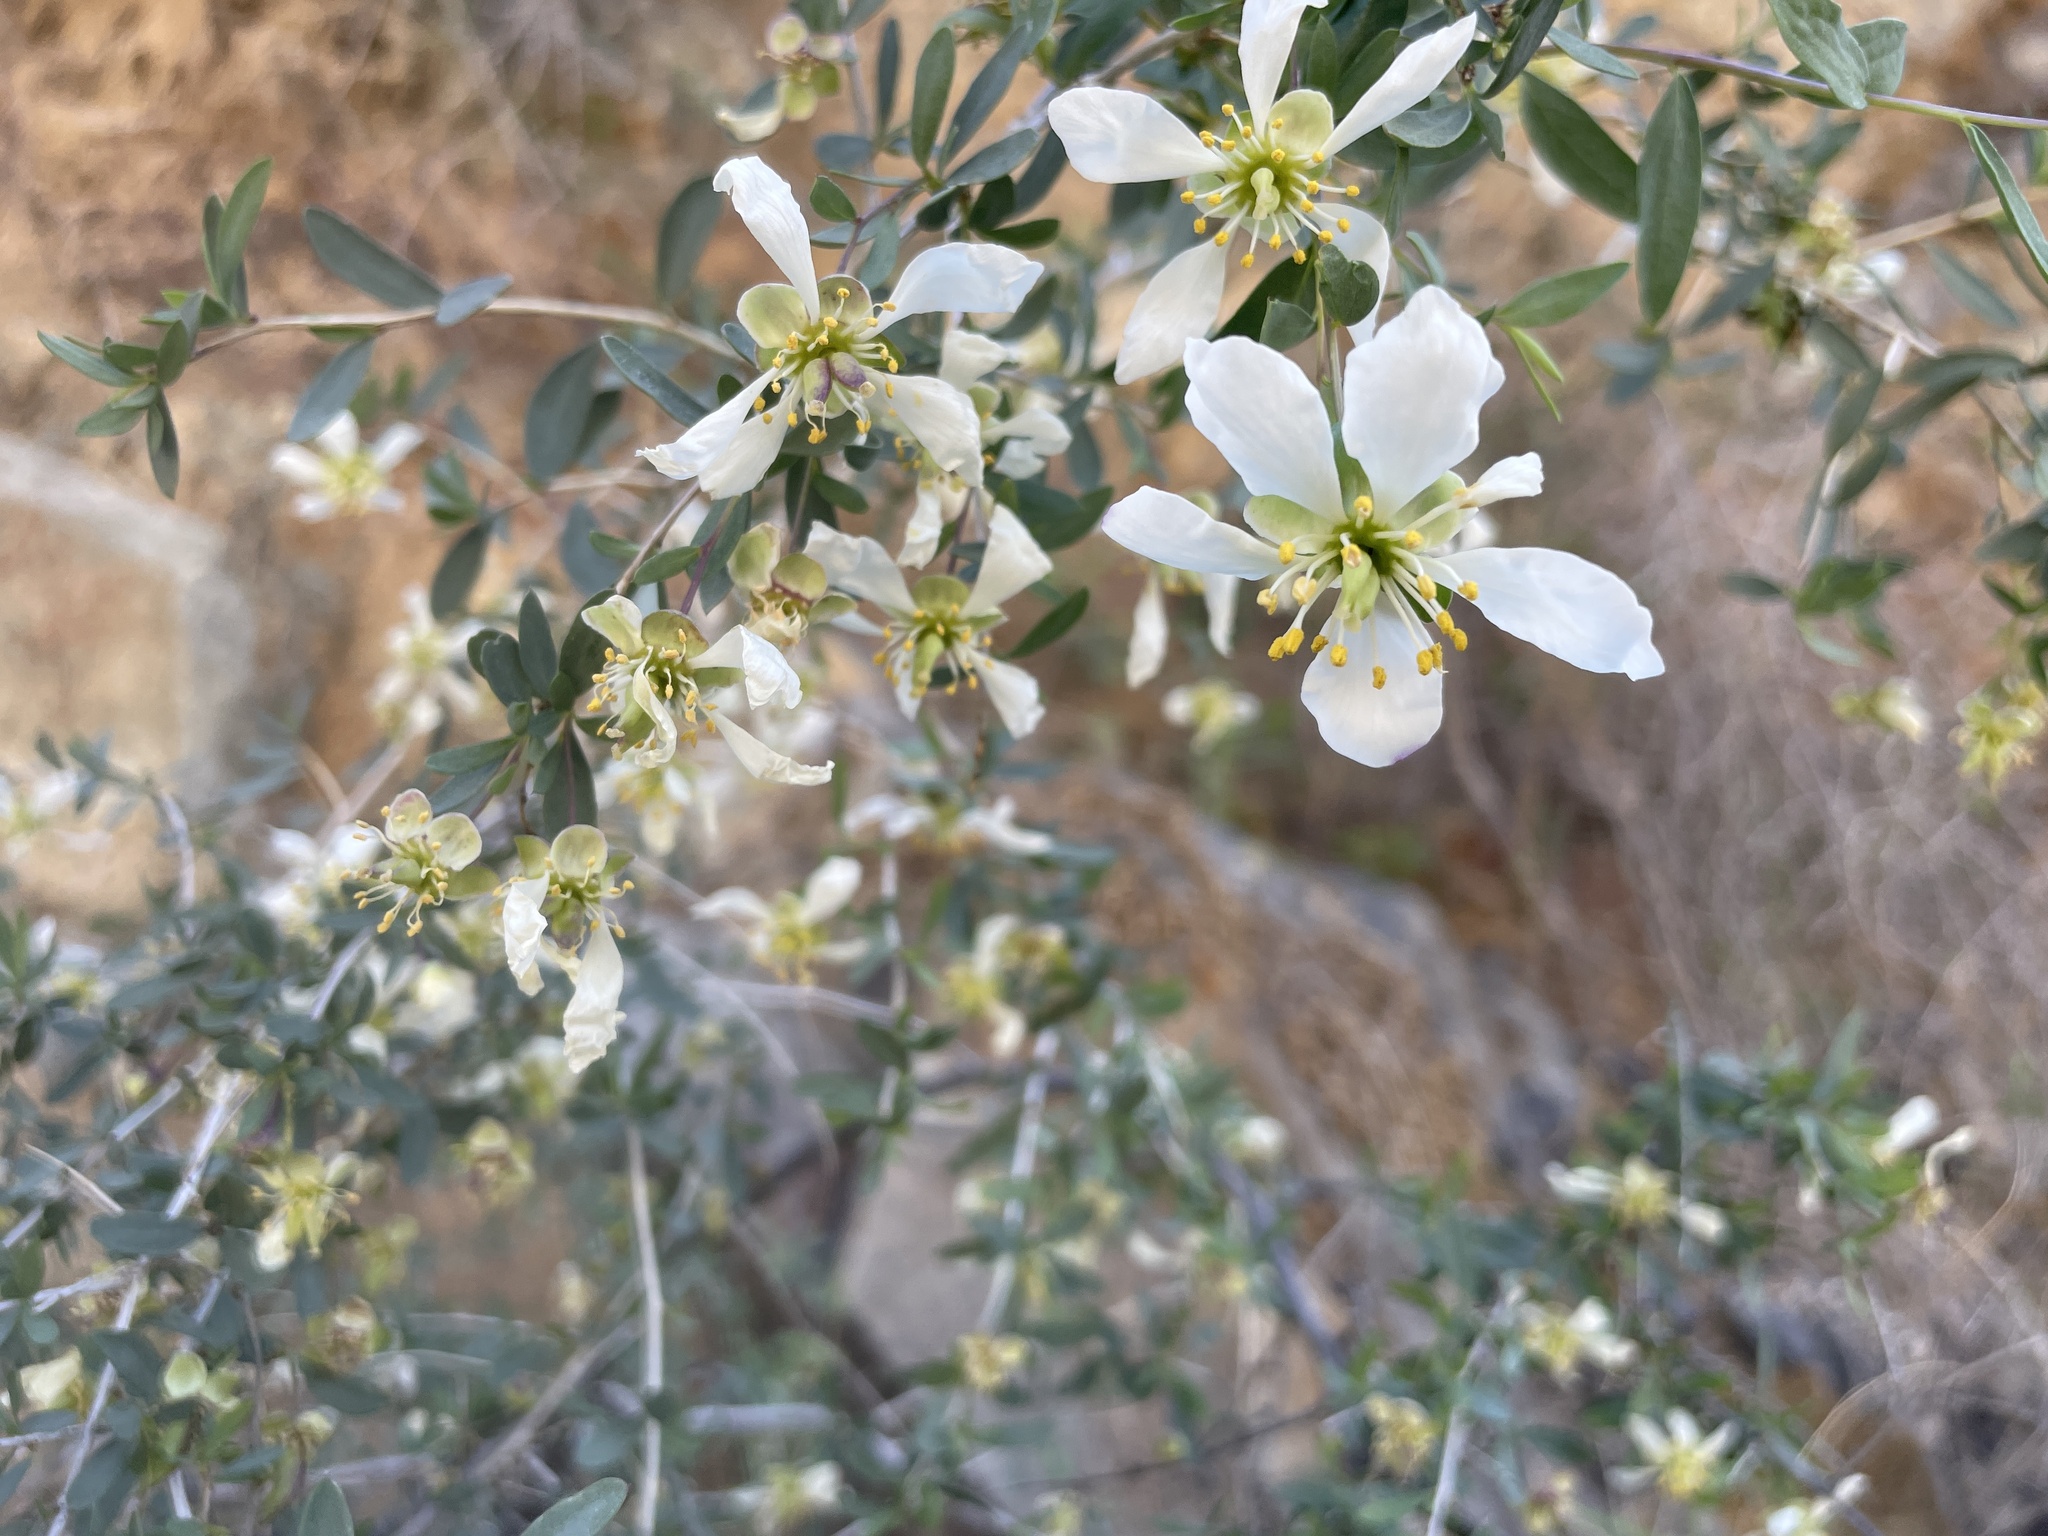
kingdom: Plantae
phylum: Tracheophyta
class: Magnoliopsida
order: Crossosomatales
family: Crossosomataceae
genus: Crossosoma
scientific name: Crossosoma bigelovii
